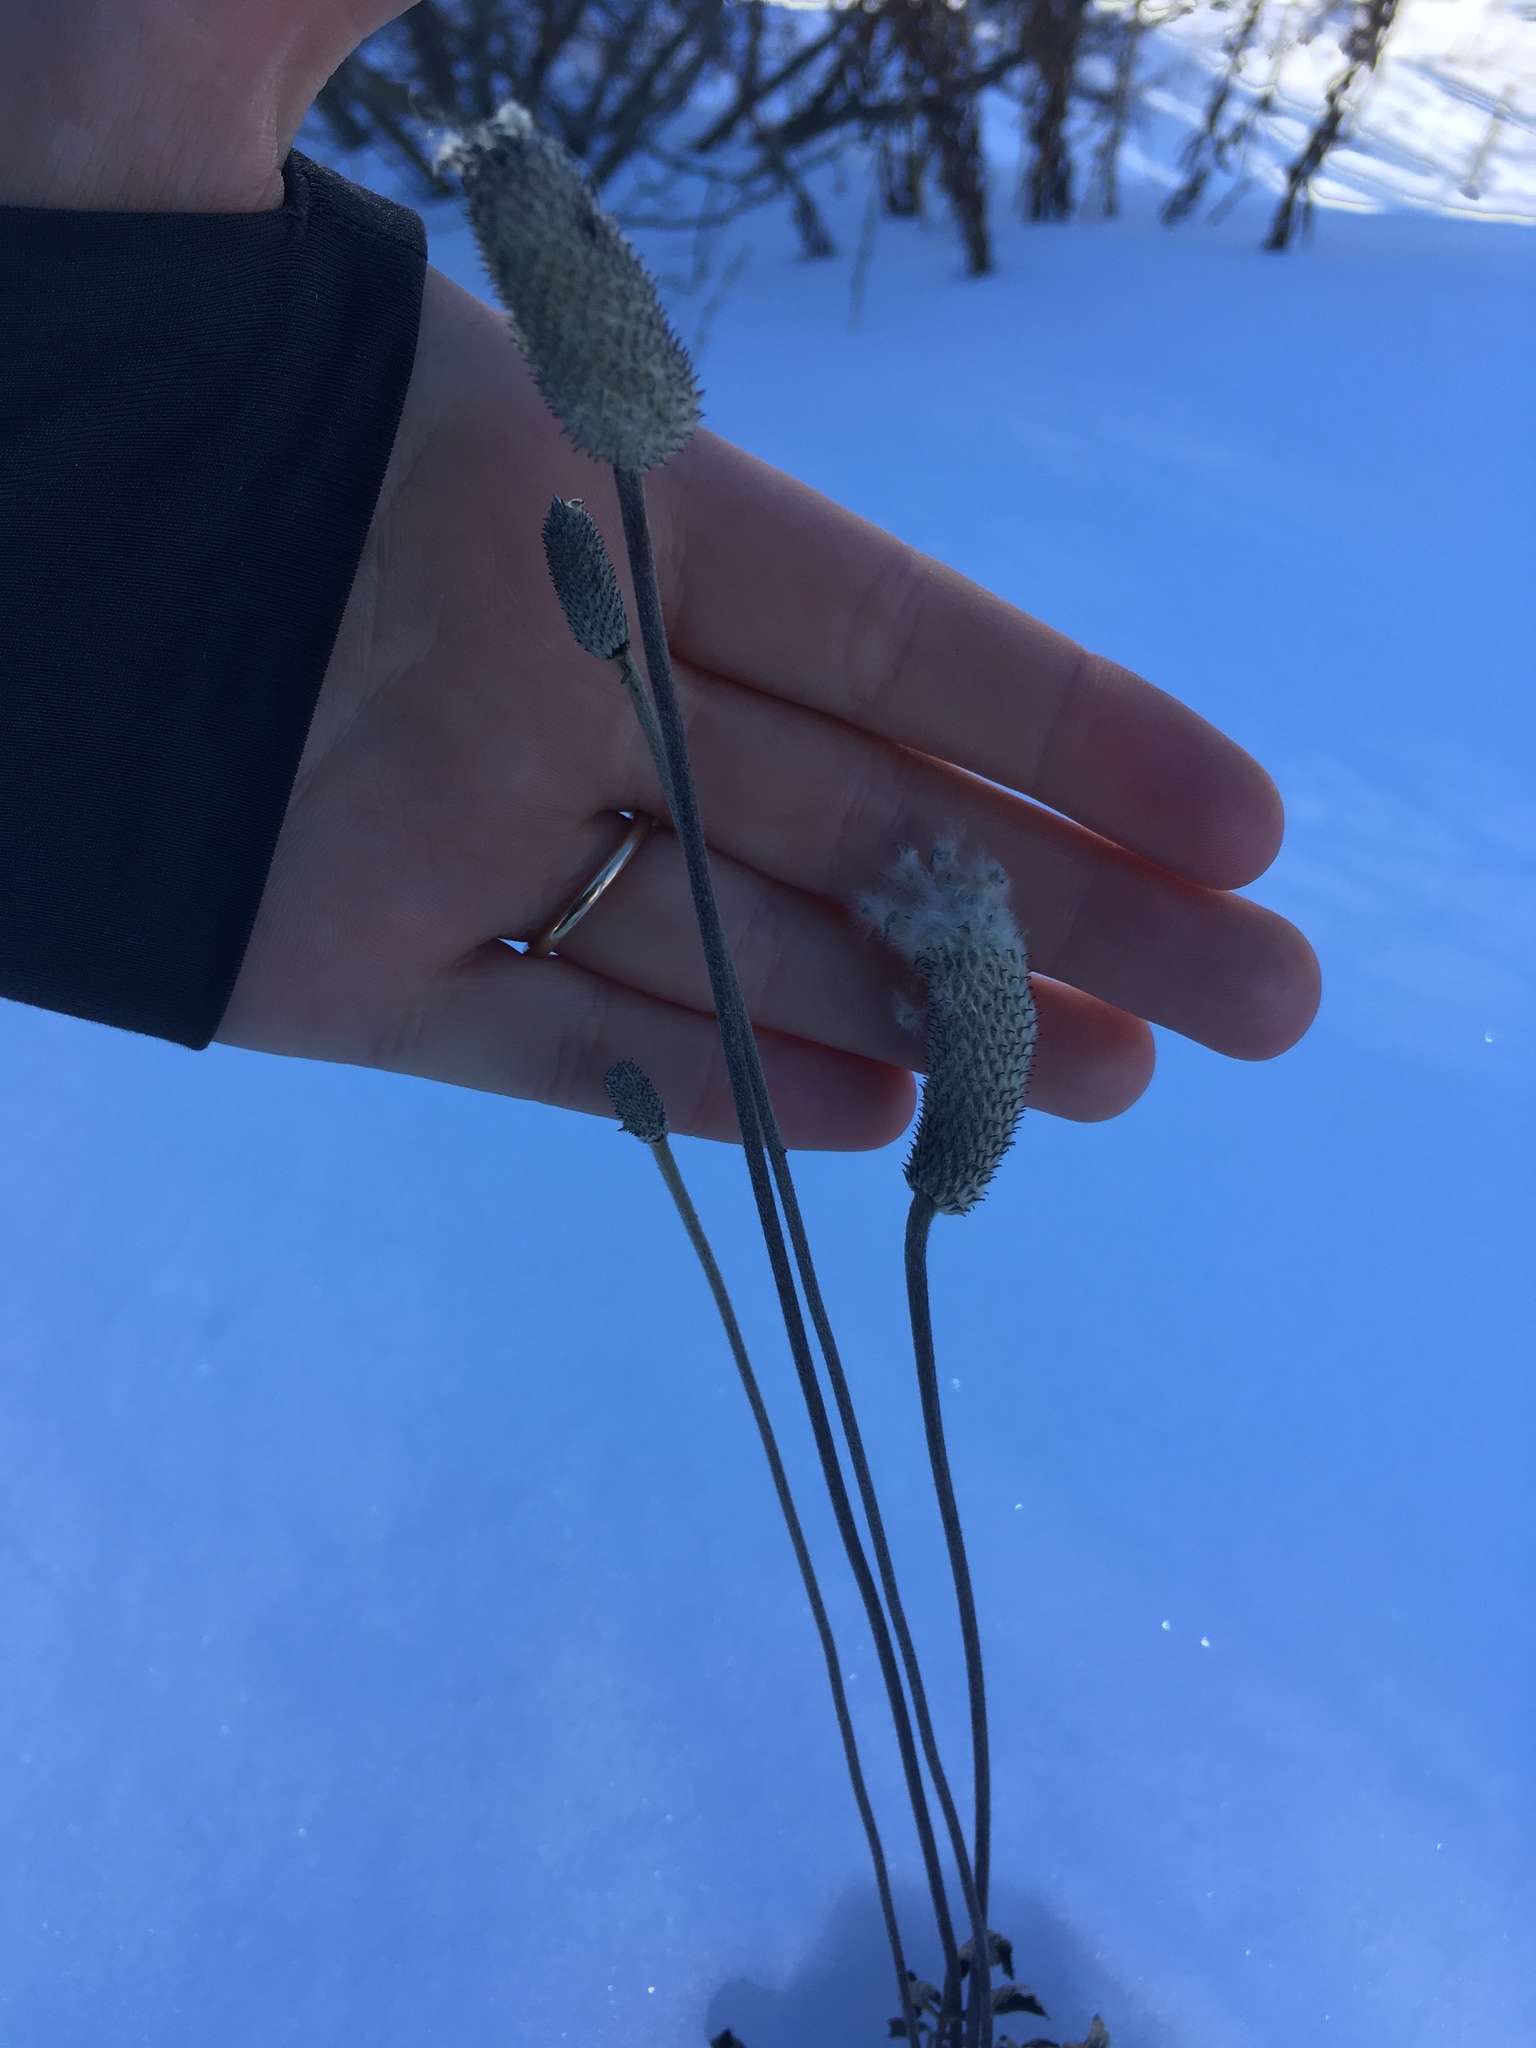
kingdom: Plantae
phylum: Tracheophyta
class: Magnoliopsida
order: Ranunculales
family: Ranunculaceae
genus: Anemone
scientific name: Anemone cylindrica
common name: Candle anemone
